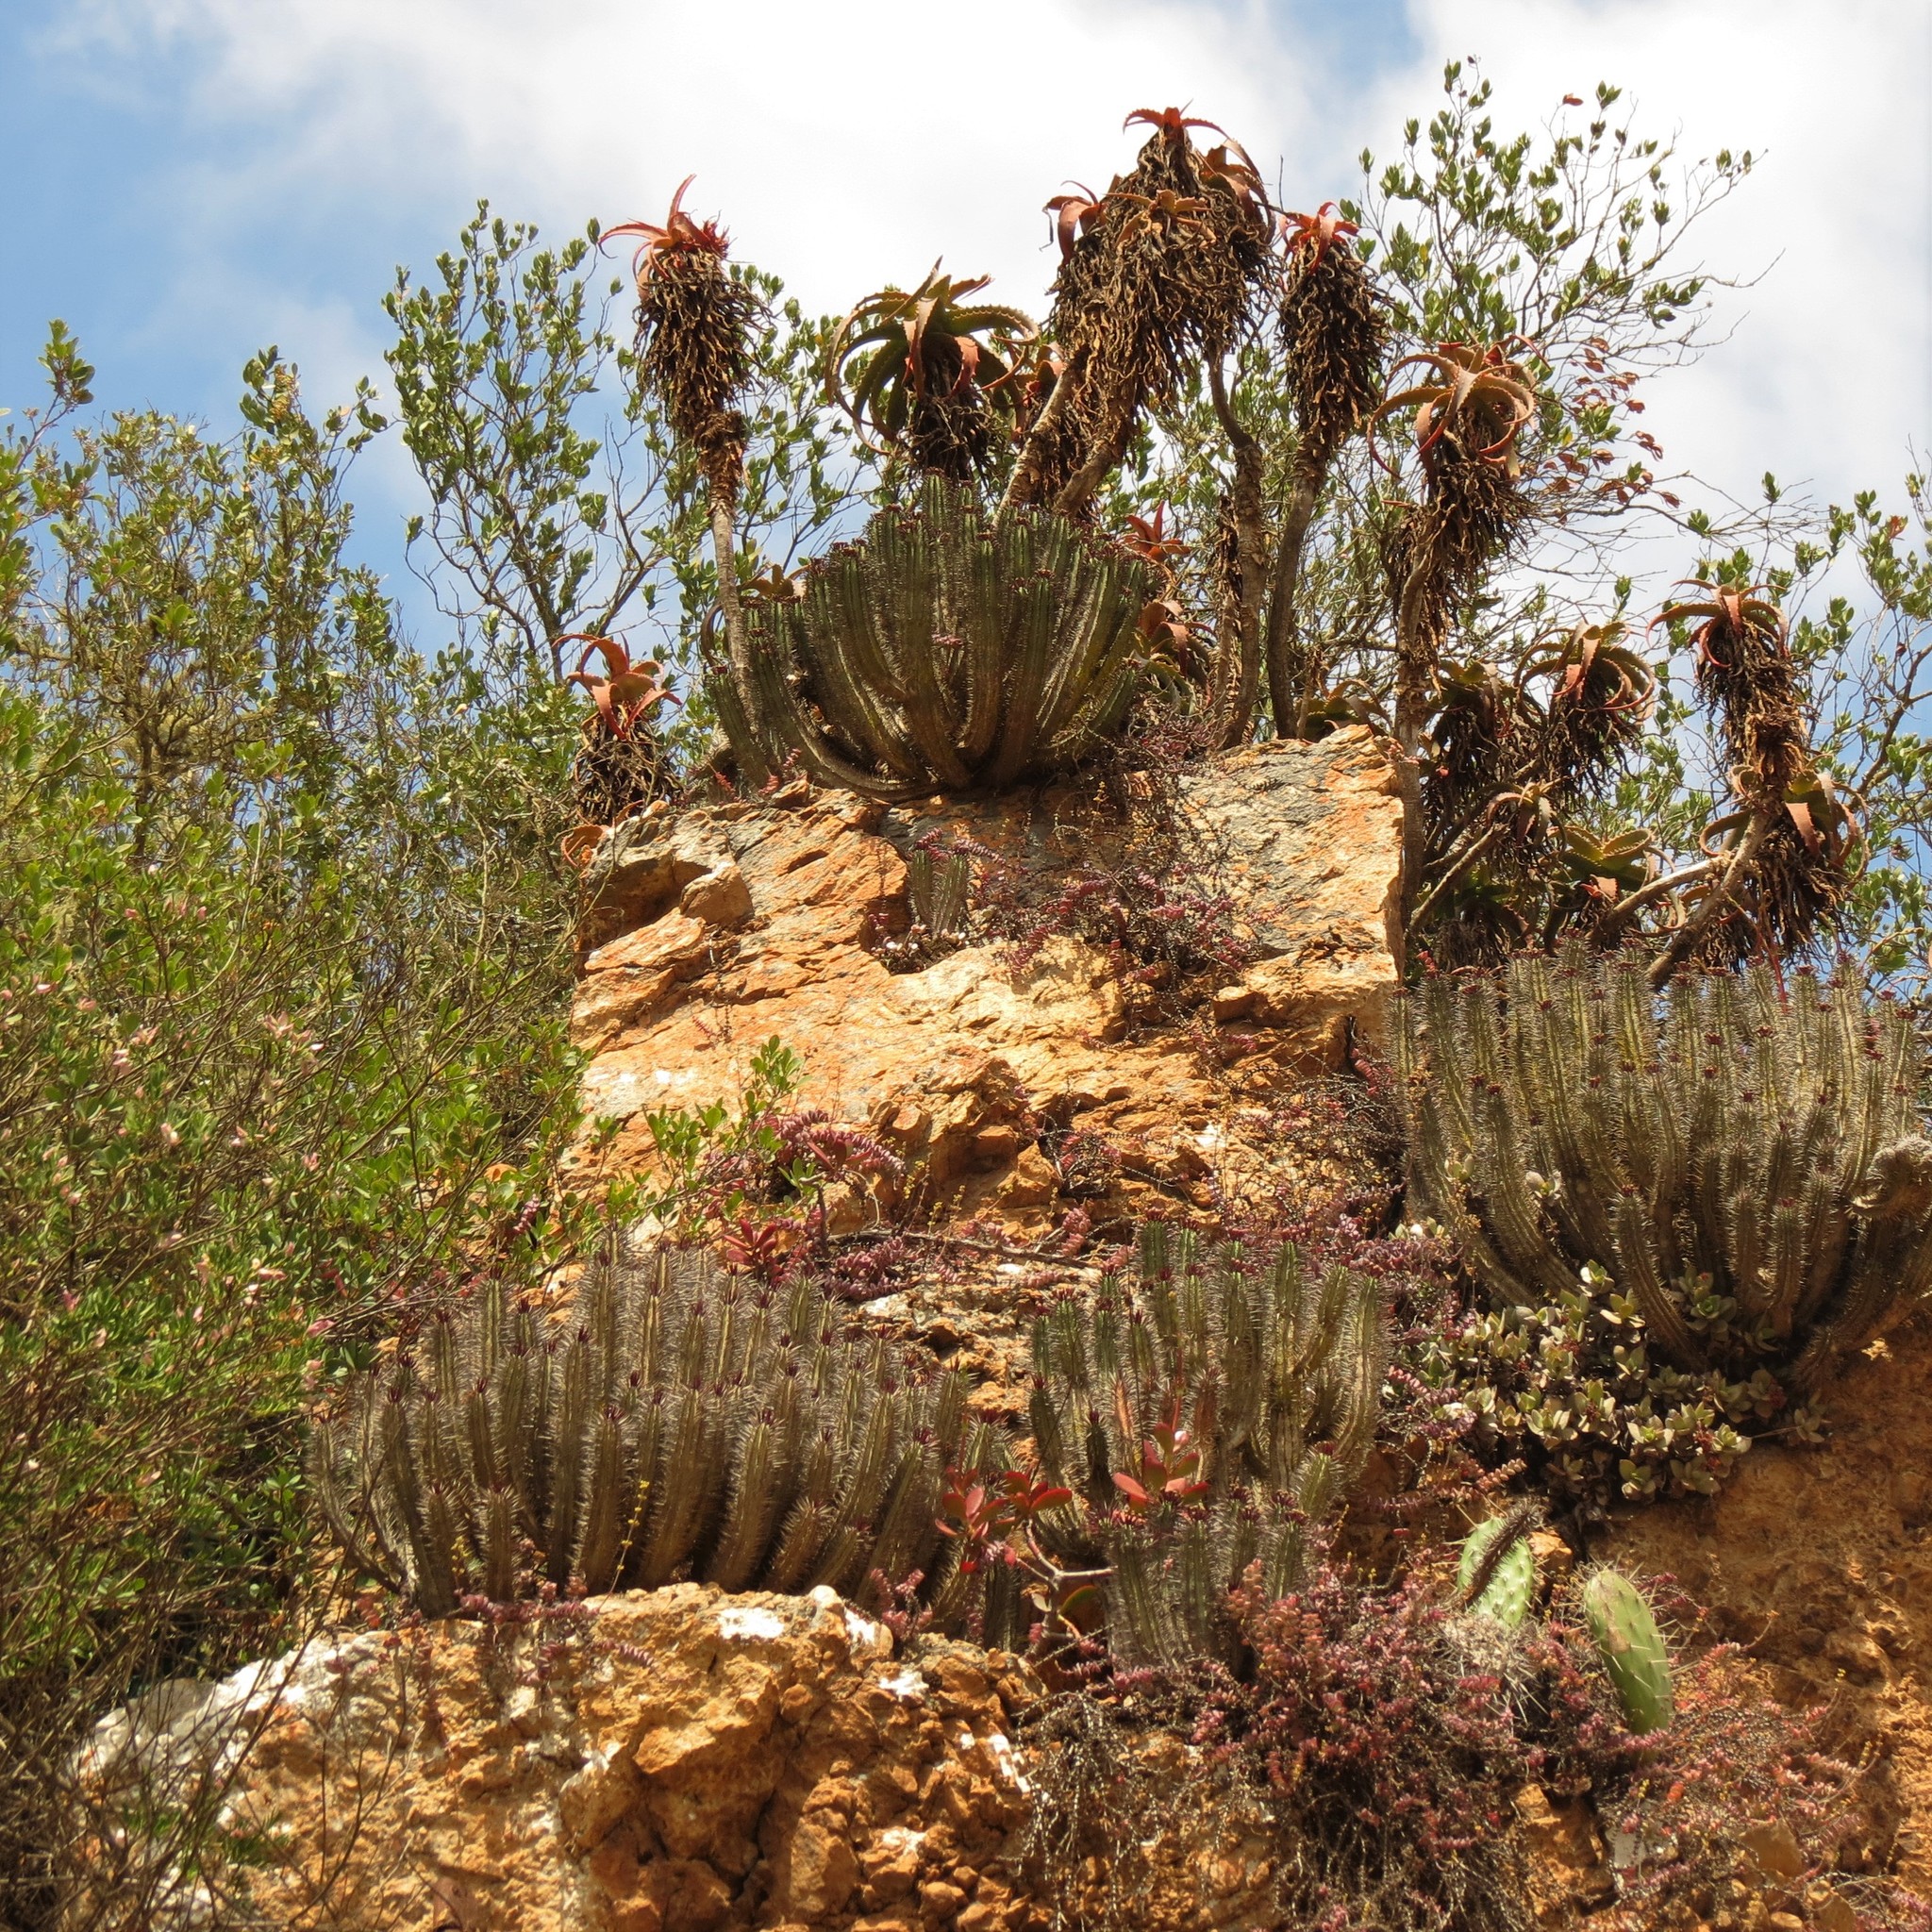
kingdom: Plantae
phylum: Tracheophyta
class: Magnoliopsida
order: Malpighiales
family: Euphorbiaceae
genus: Euphorbia
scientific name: Euphorbia heptagona
